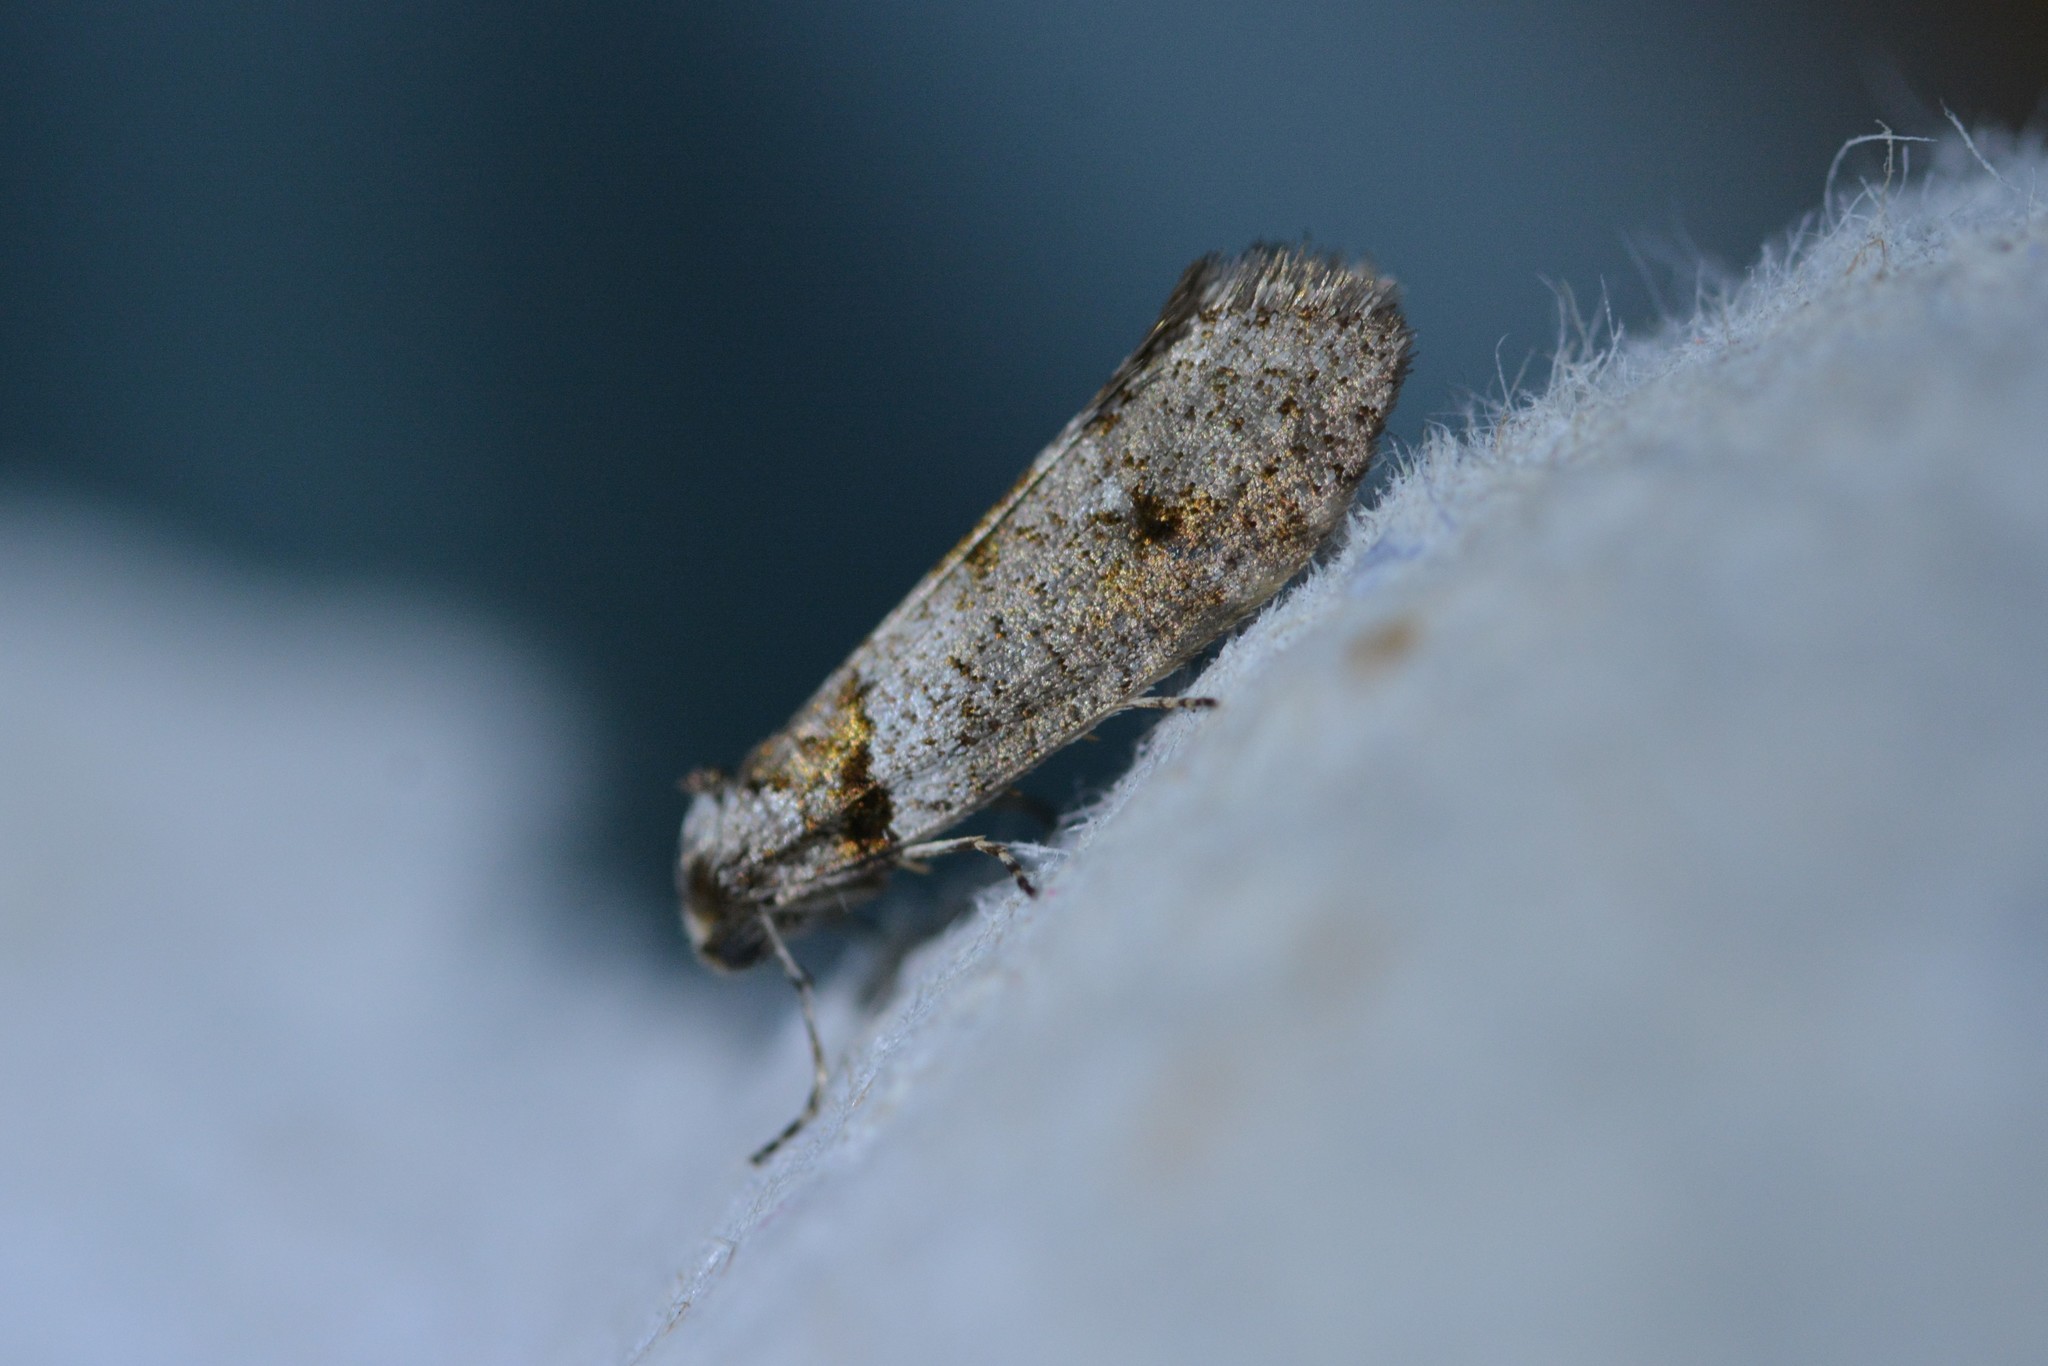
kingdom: Animalia
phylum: Arthropoda
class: Insecta
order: Lepidoptera
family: Psychidae
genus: Lepidoscia
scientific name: Lepidoscia heliochares
